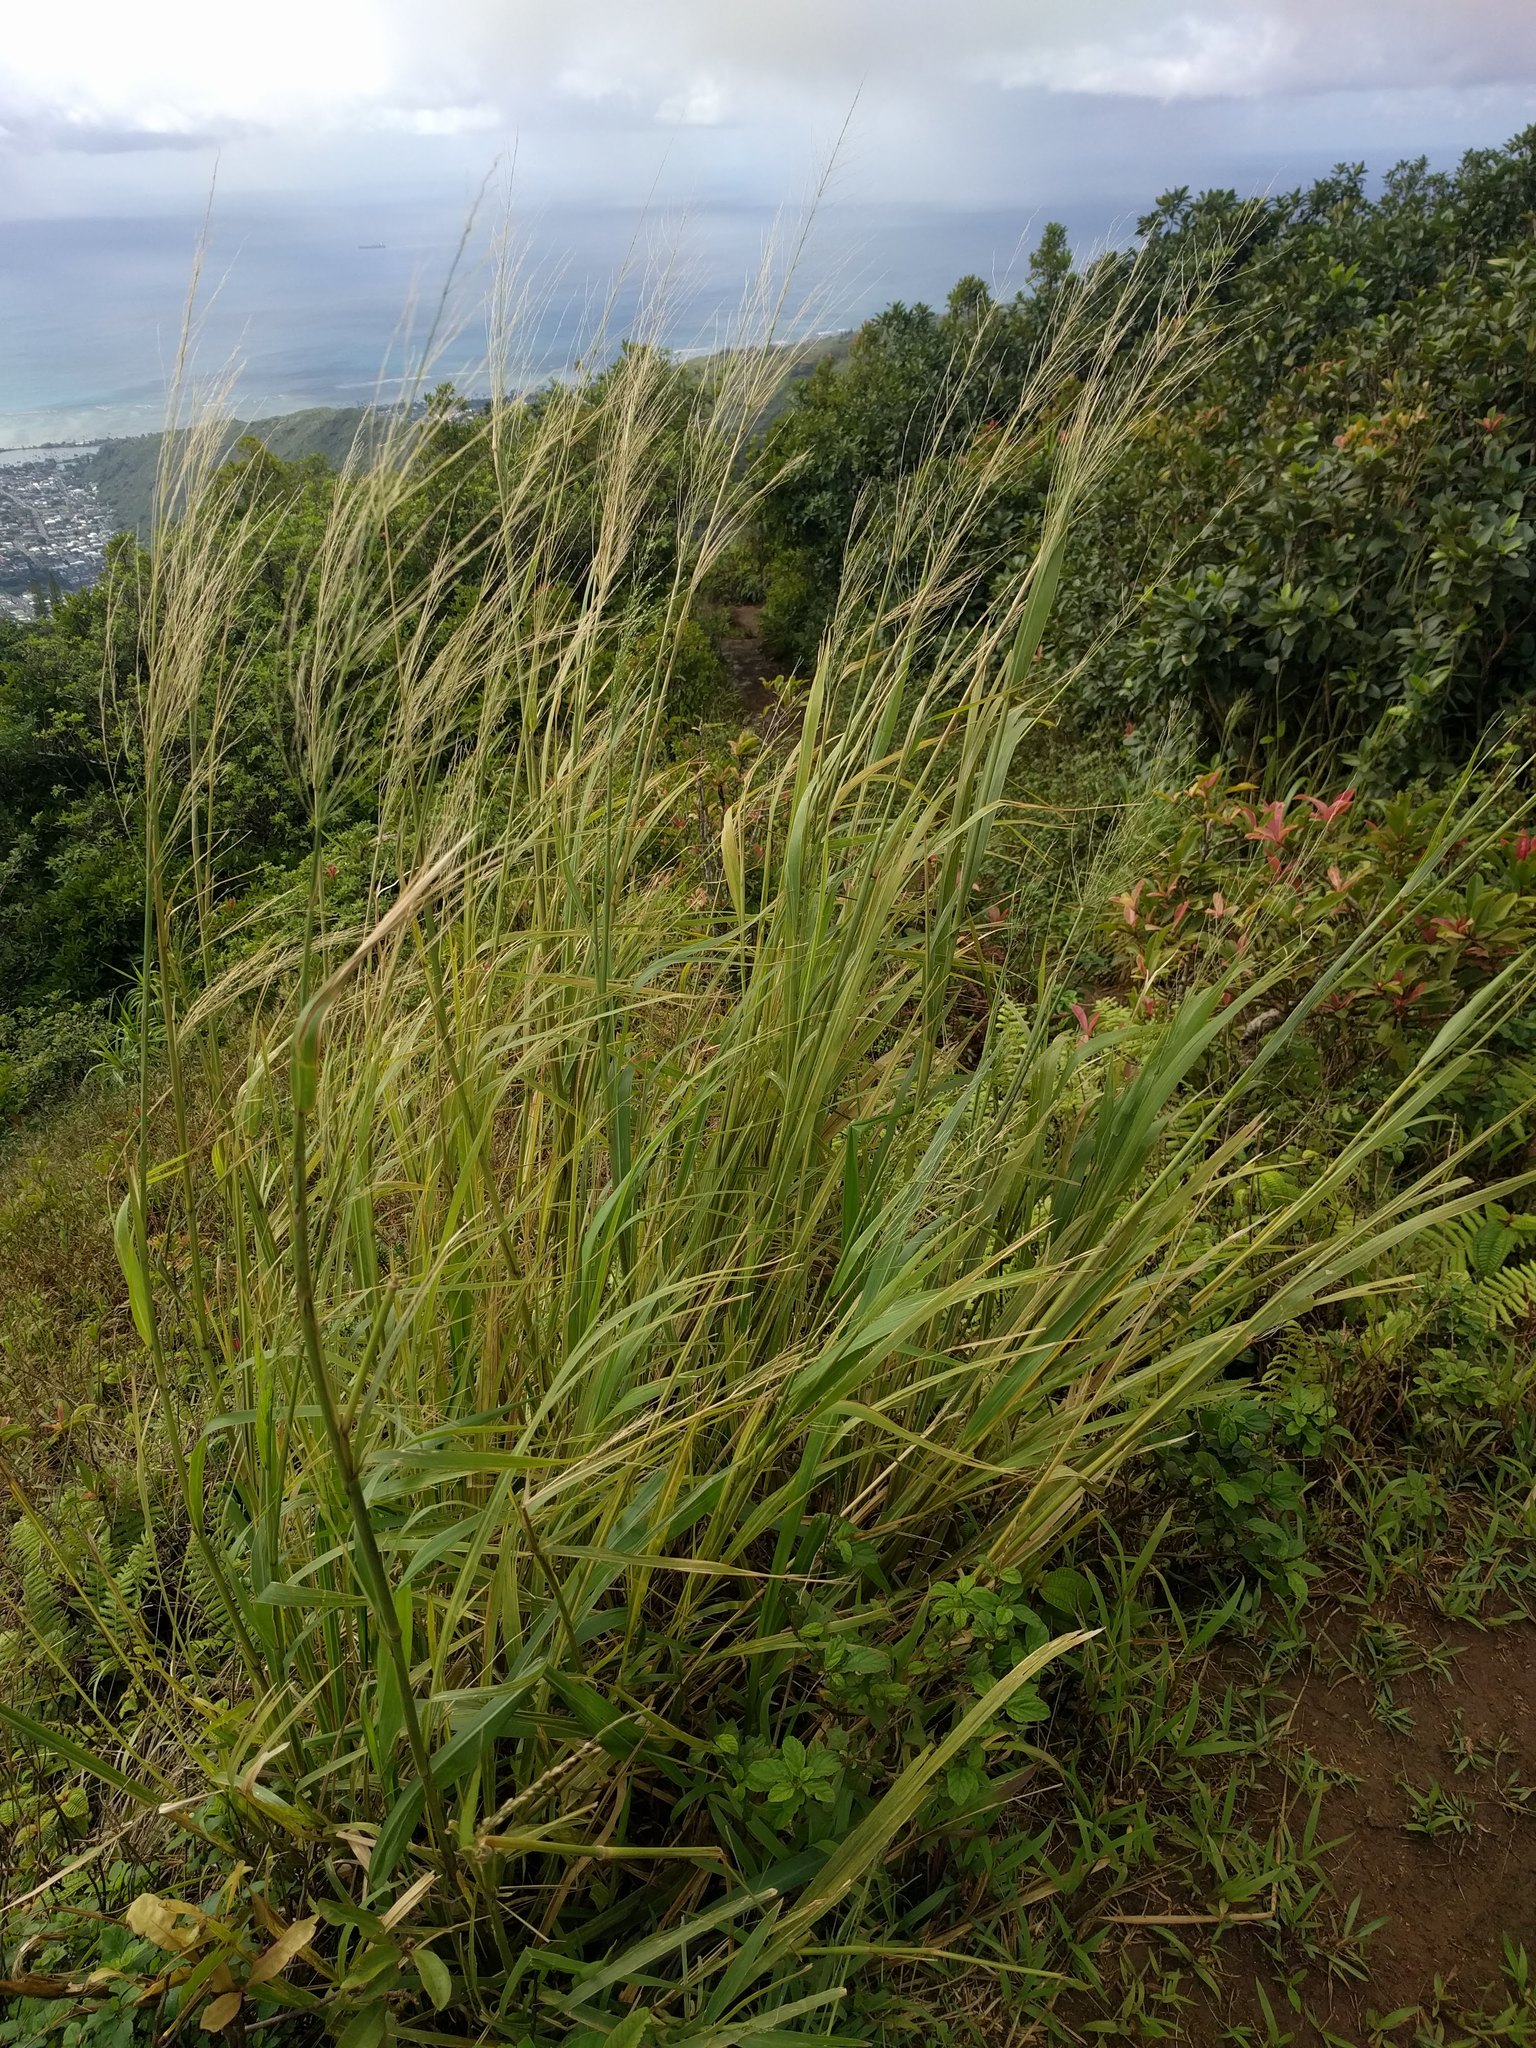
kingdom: Plantae
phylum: Tracheophyta
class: Liliopsida
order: Poales
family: Poaceae
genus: Megathyrsus
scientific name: Megathyrsus maximus
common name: Guineagrass
